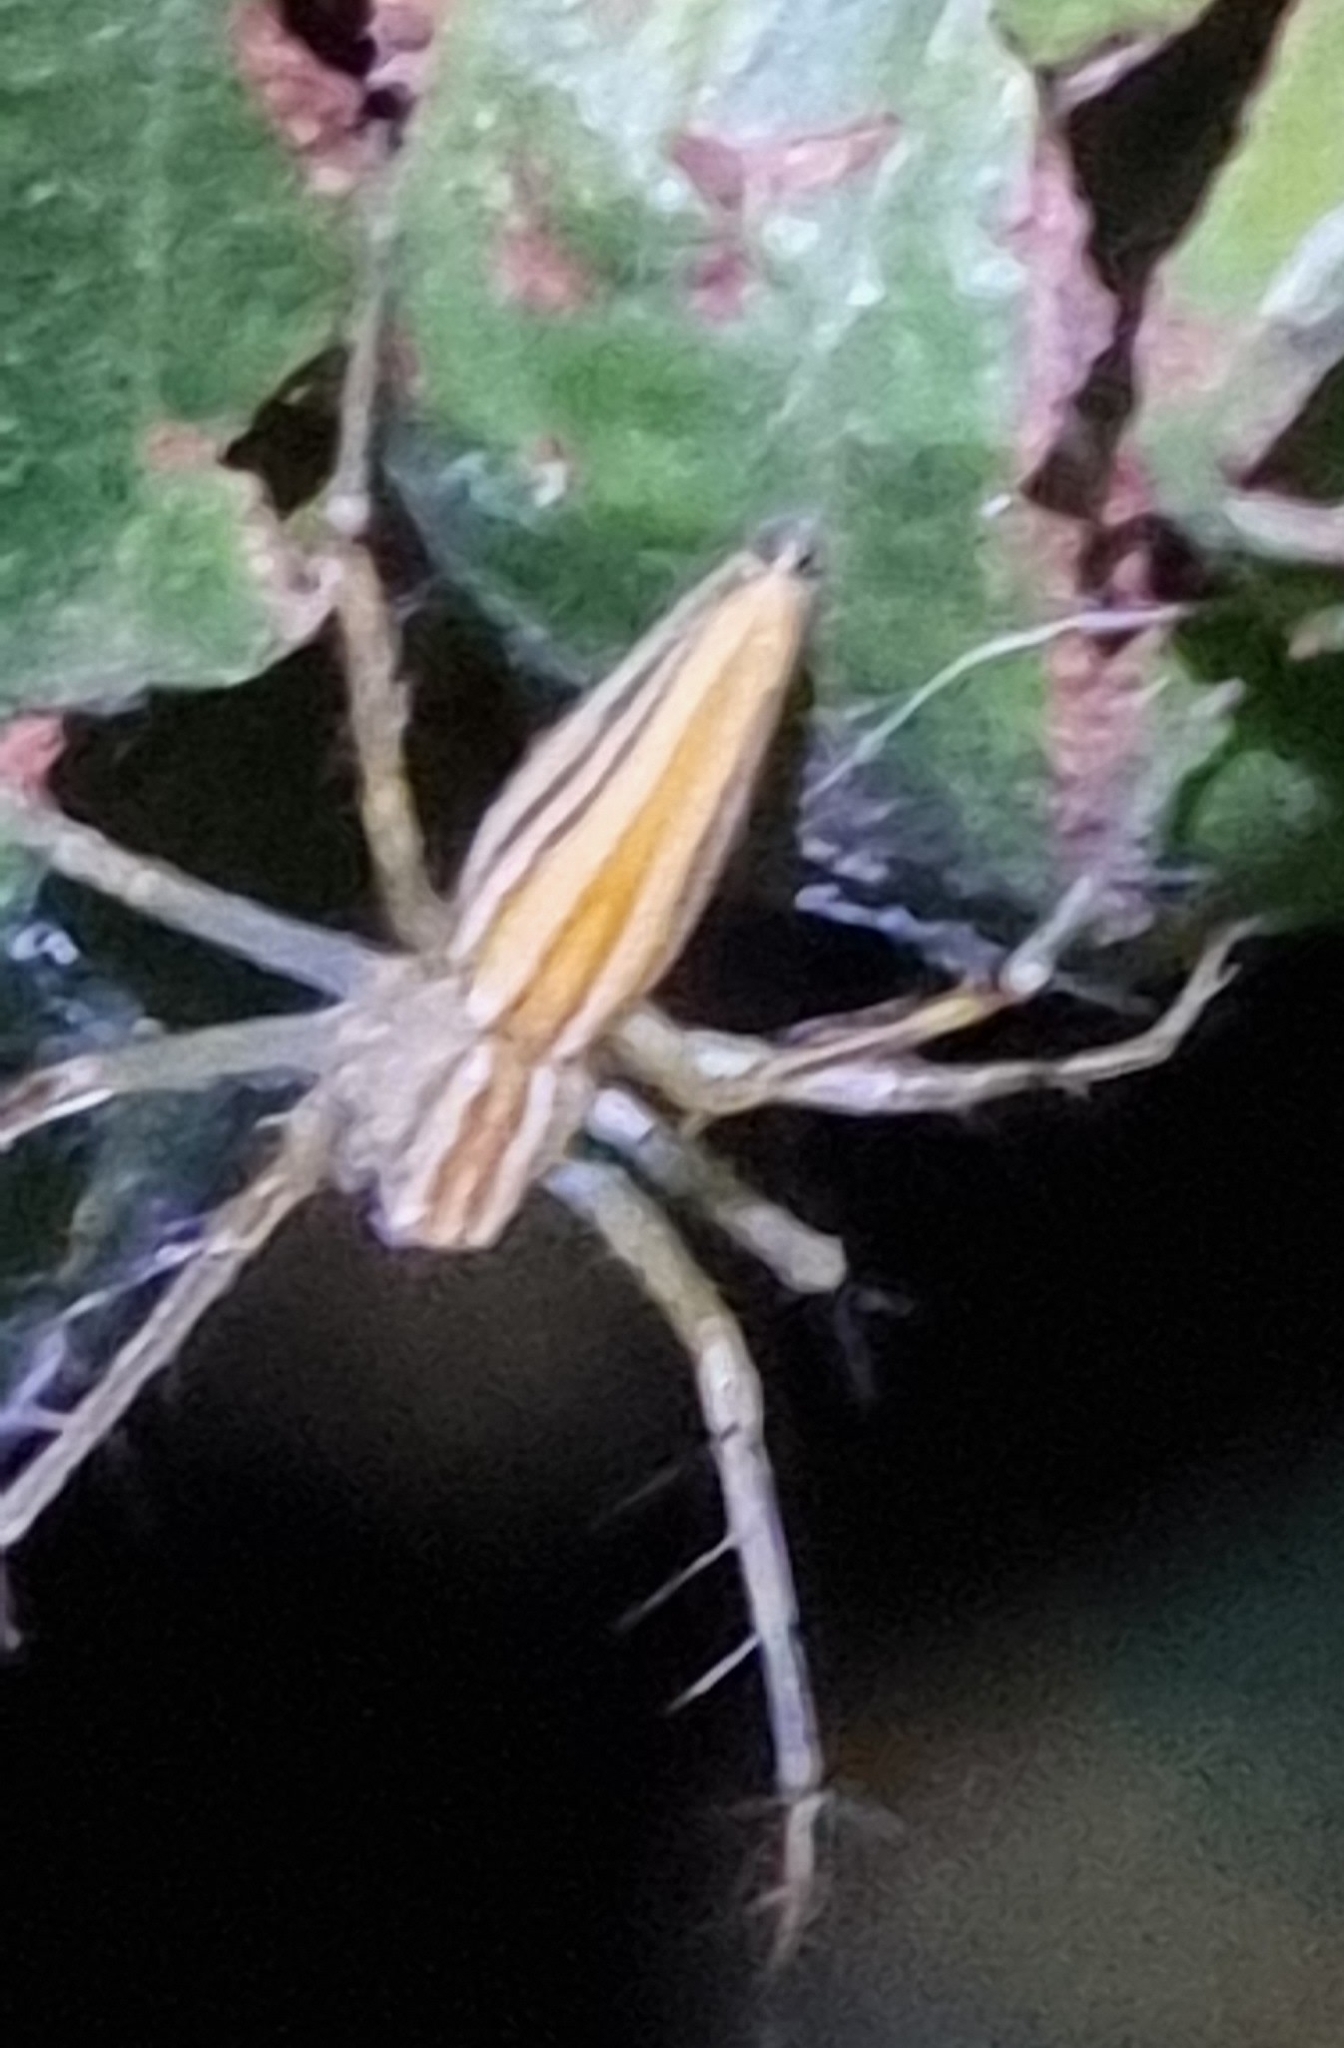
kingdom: Animalia
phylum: Arthropoda
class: Arachnida
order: Araneae
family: Oxyopidae
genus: Oxyopes
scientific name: Oxyopes macilentus
